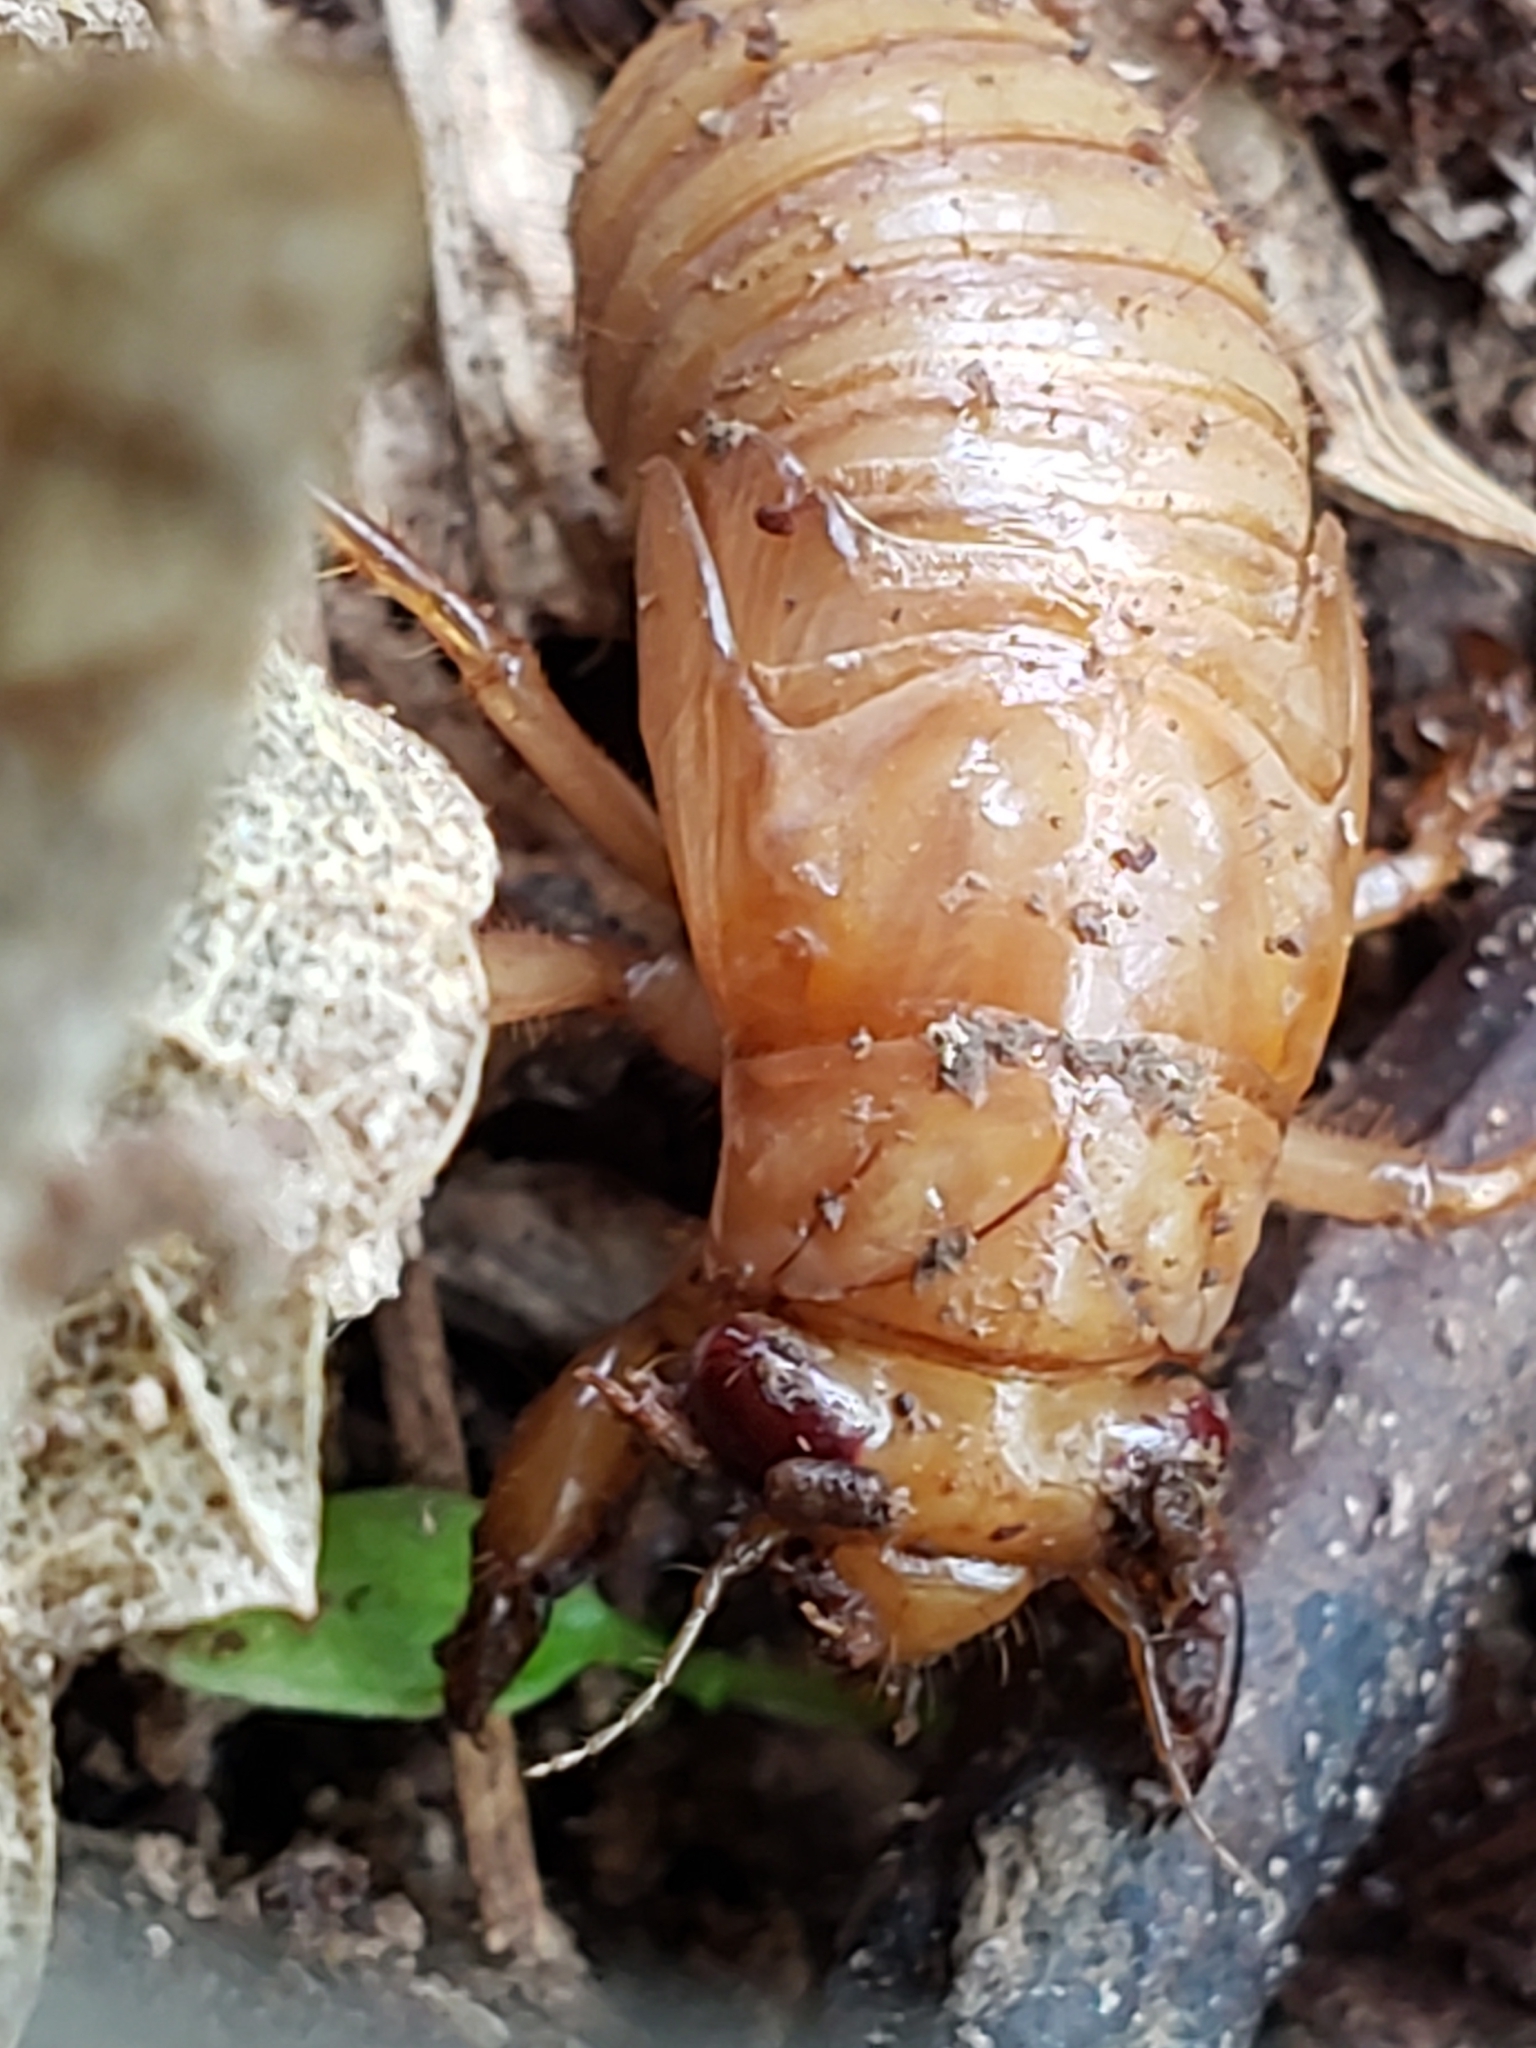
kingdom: Animalia
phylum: Arthropoda
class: Insecta
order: Hemiptera
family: Cicadidae
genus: Magicicada
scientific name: Magicicada
